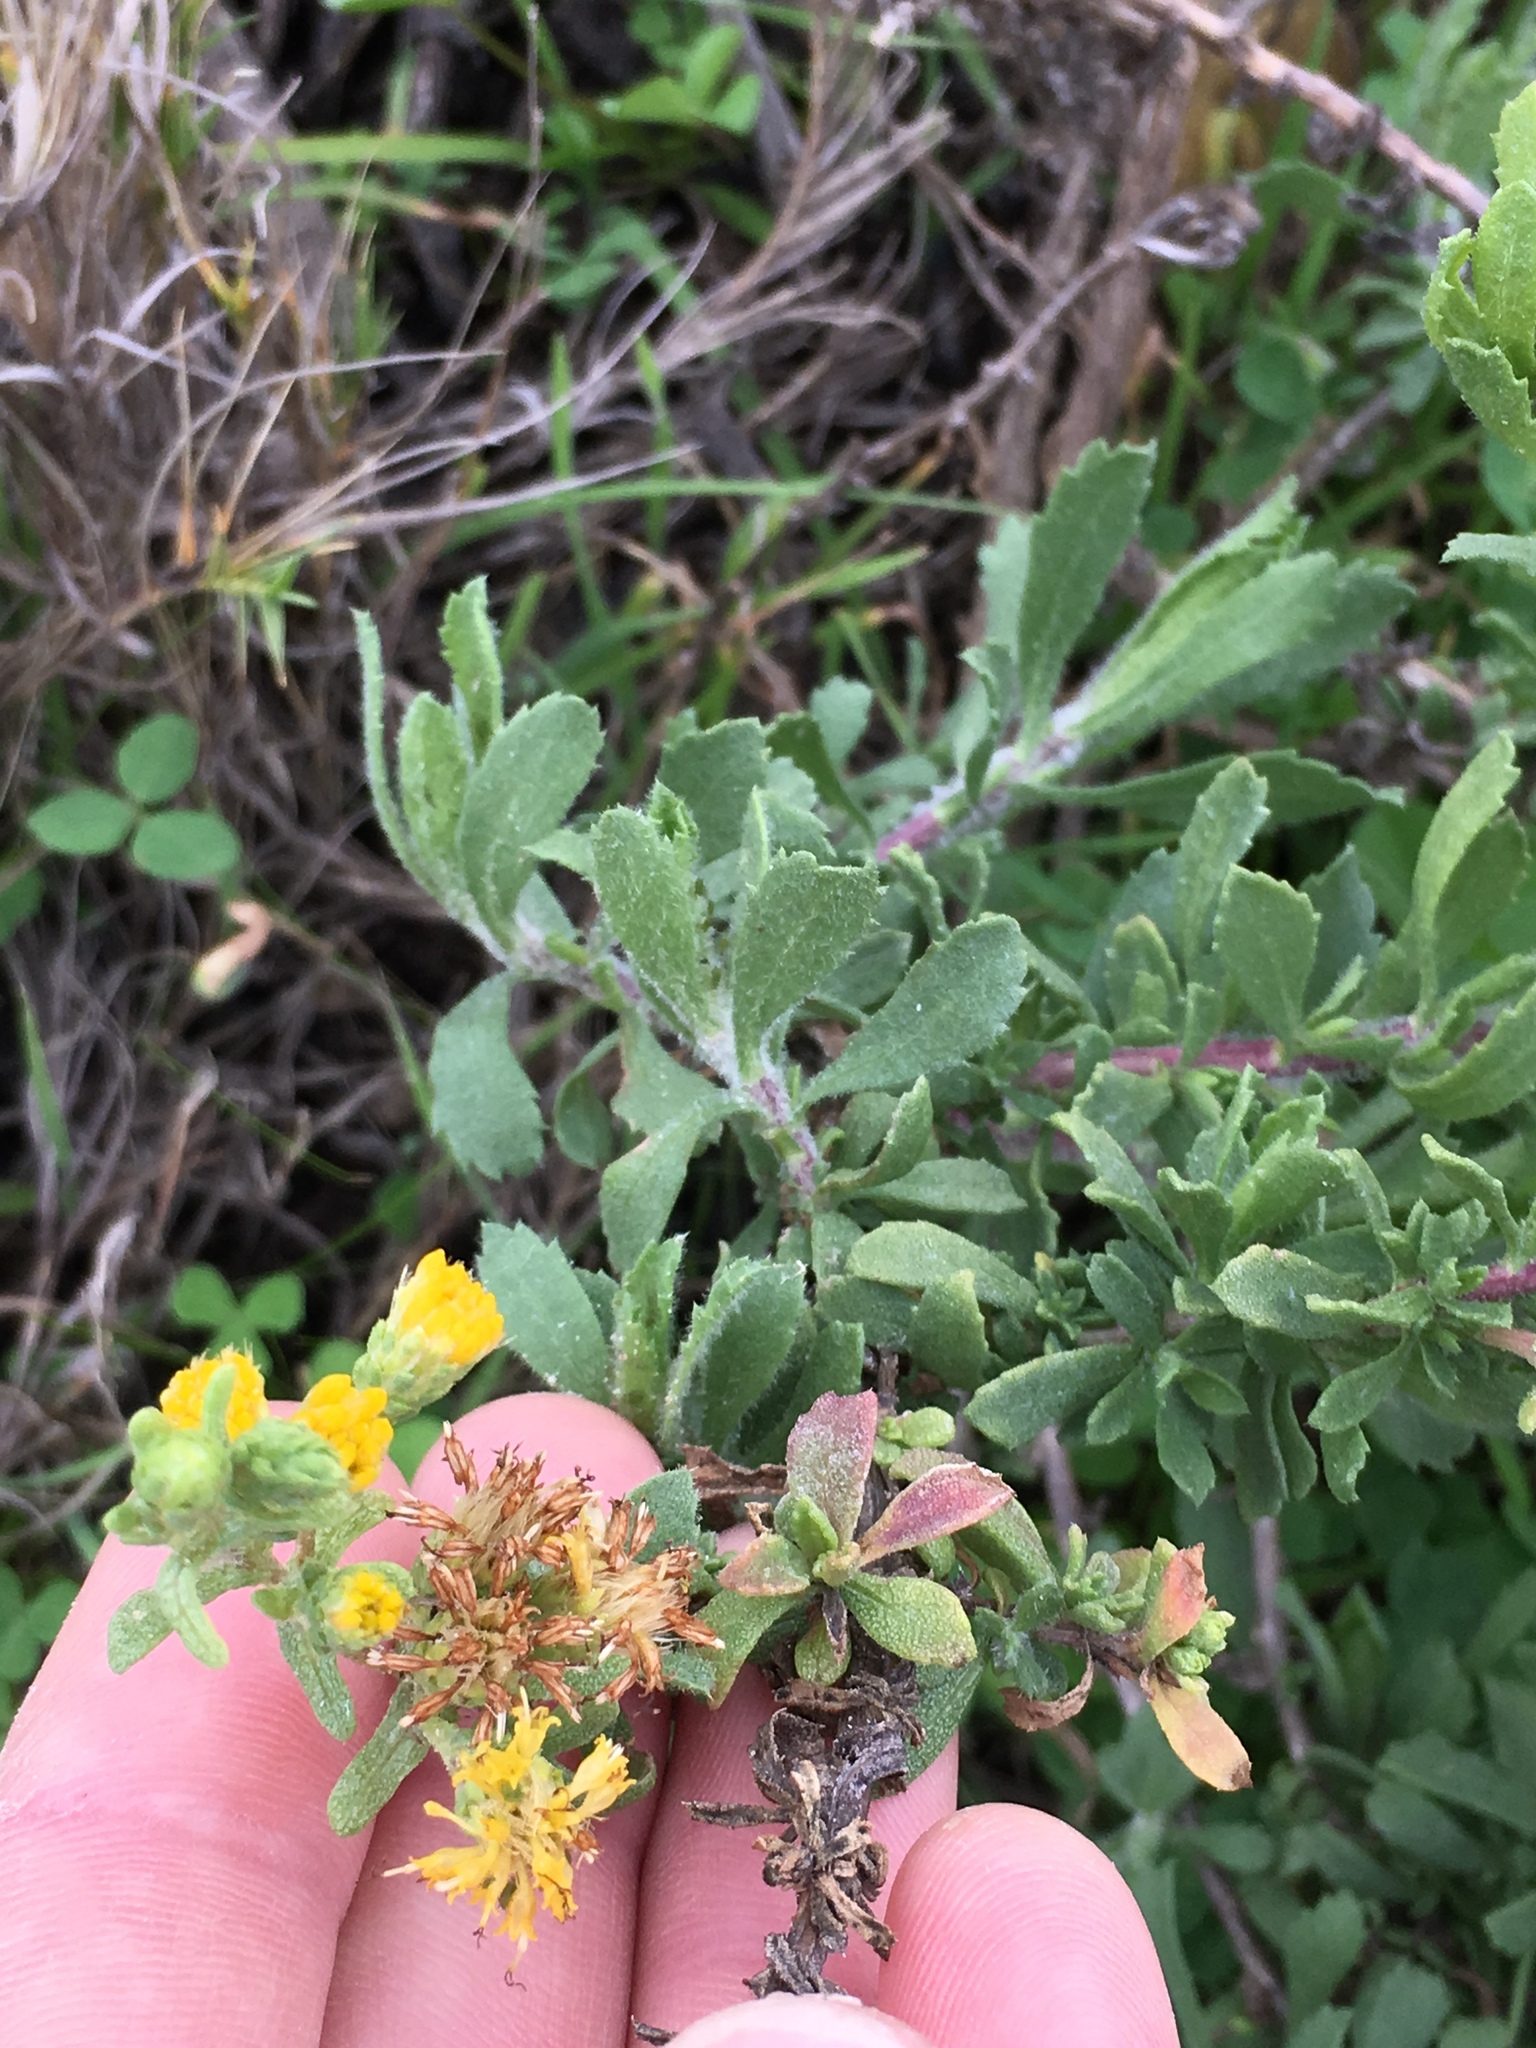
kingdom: Plantae
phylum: Tracheophyta
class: Magnoliopsida
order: Asterales
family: Asteraceae
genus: Isocoma
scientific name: Isocoma menziesii
